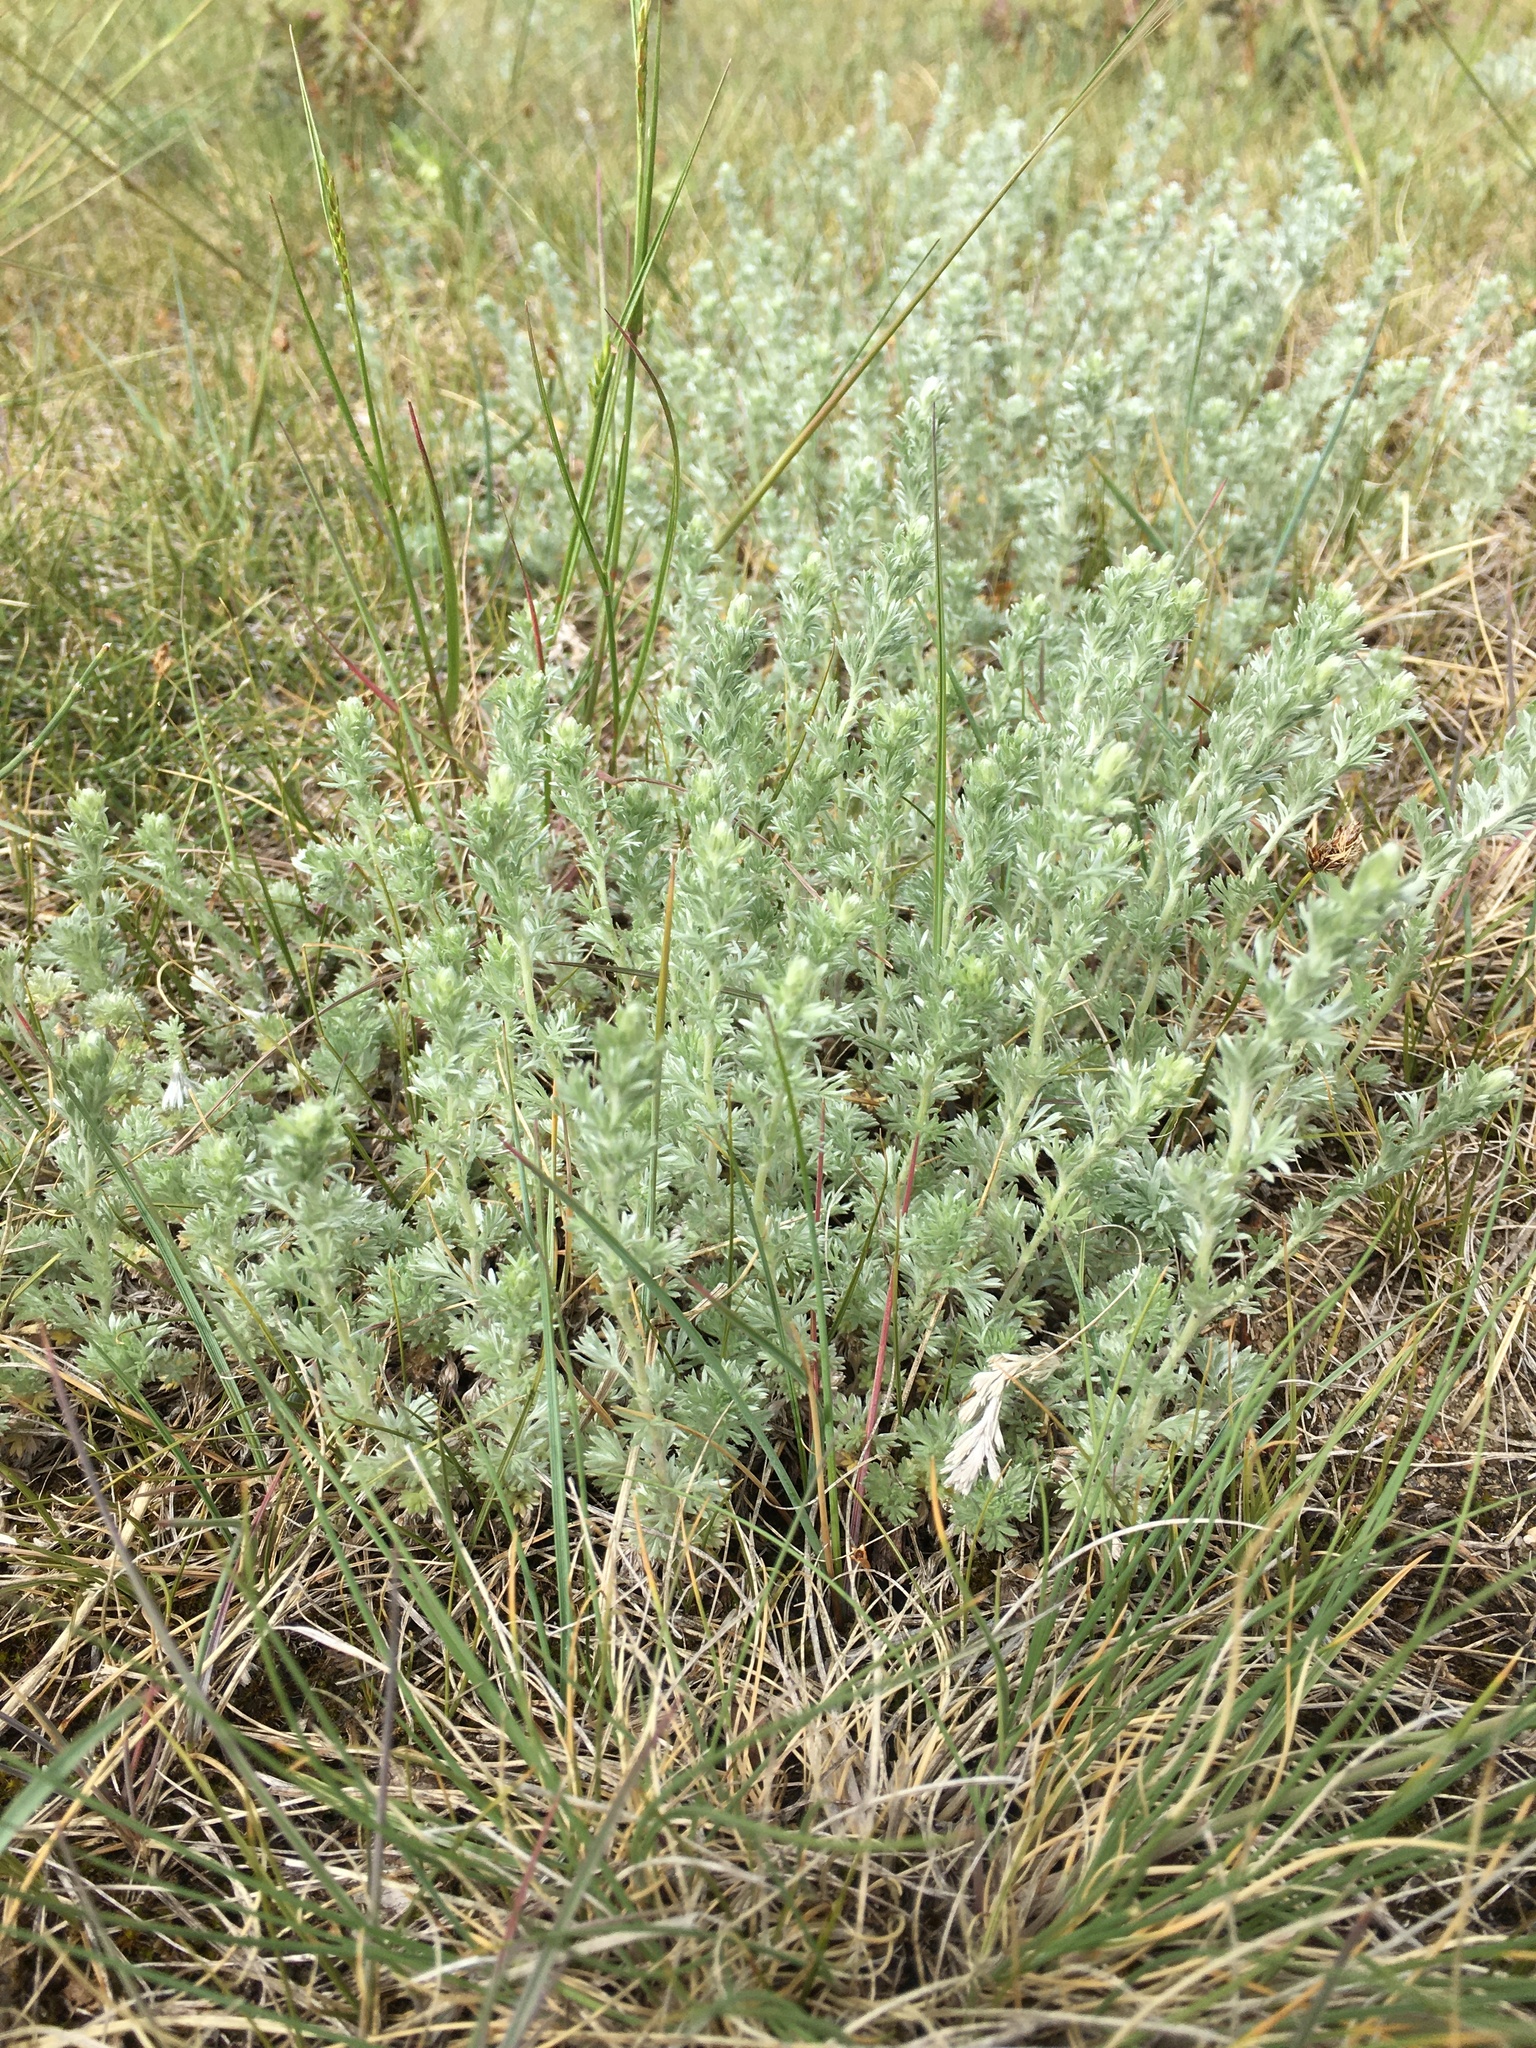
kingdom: Plantae
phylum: Tracheophyta
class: Magnoliopsida
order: Asterales
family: Asteraceae
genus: Artemisia
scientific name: Artemisia frigida
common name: Prairie sagewort
